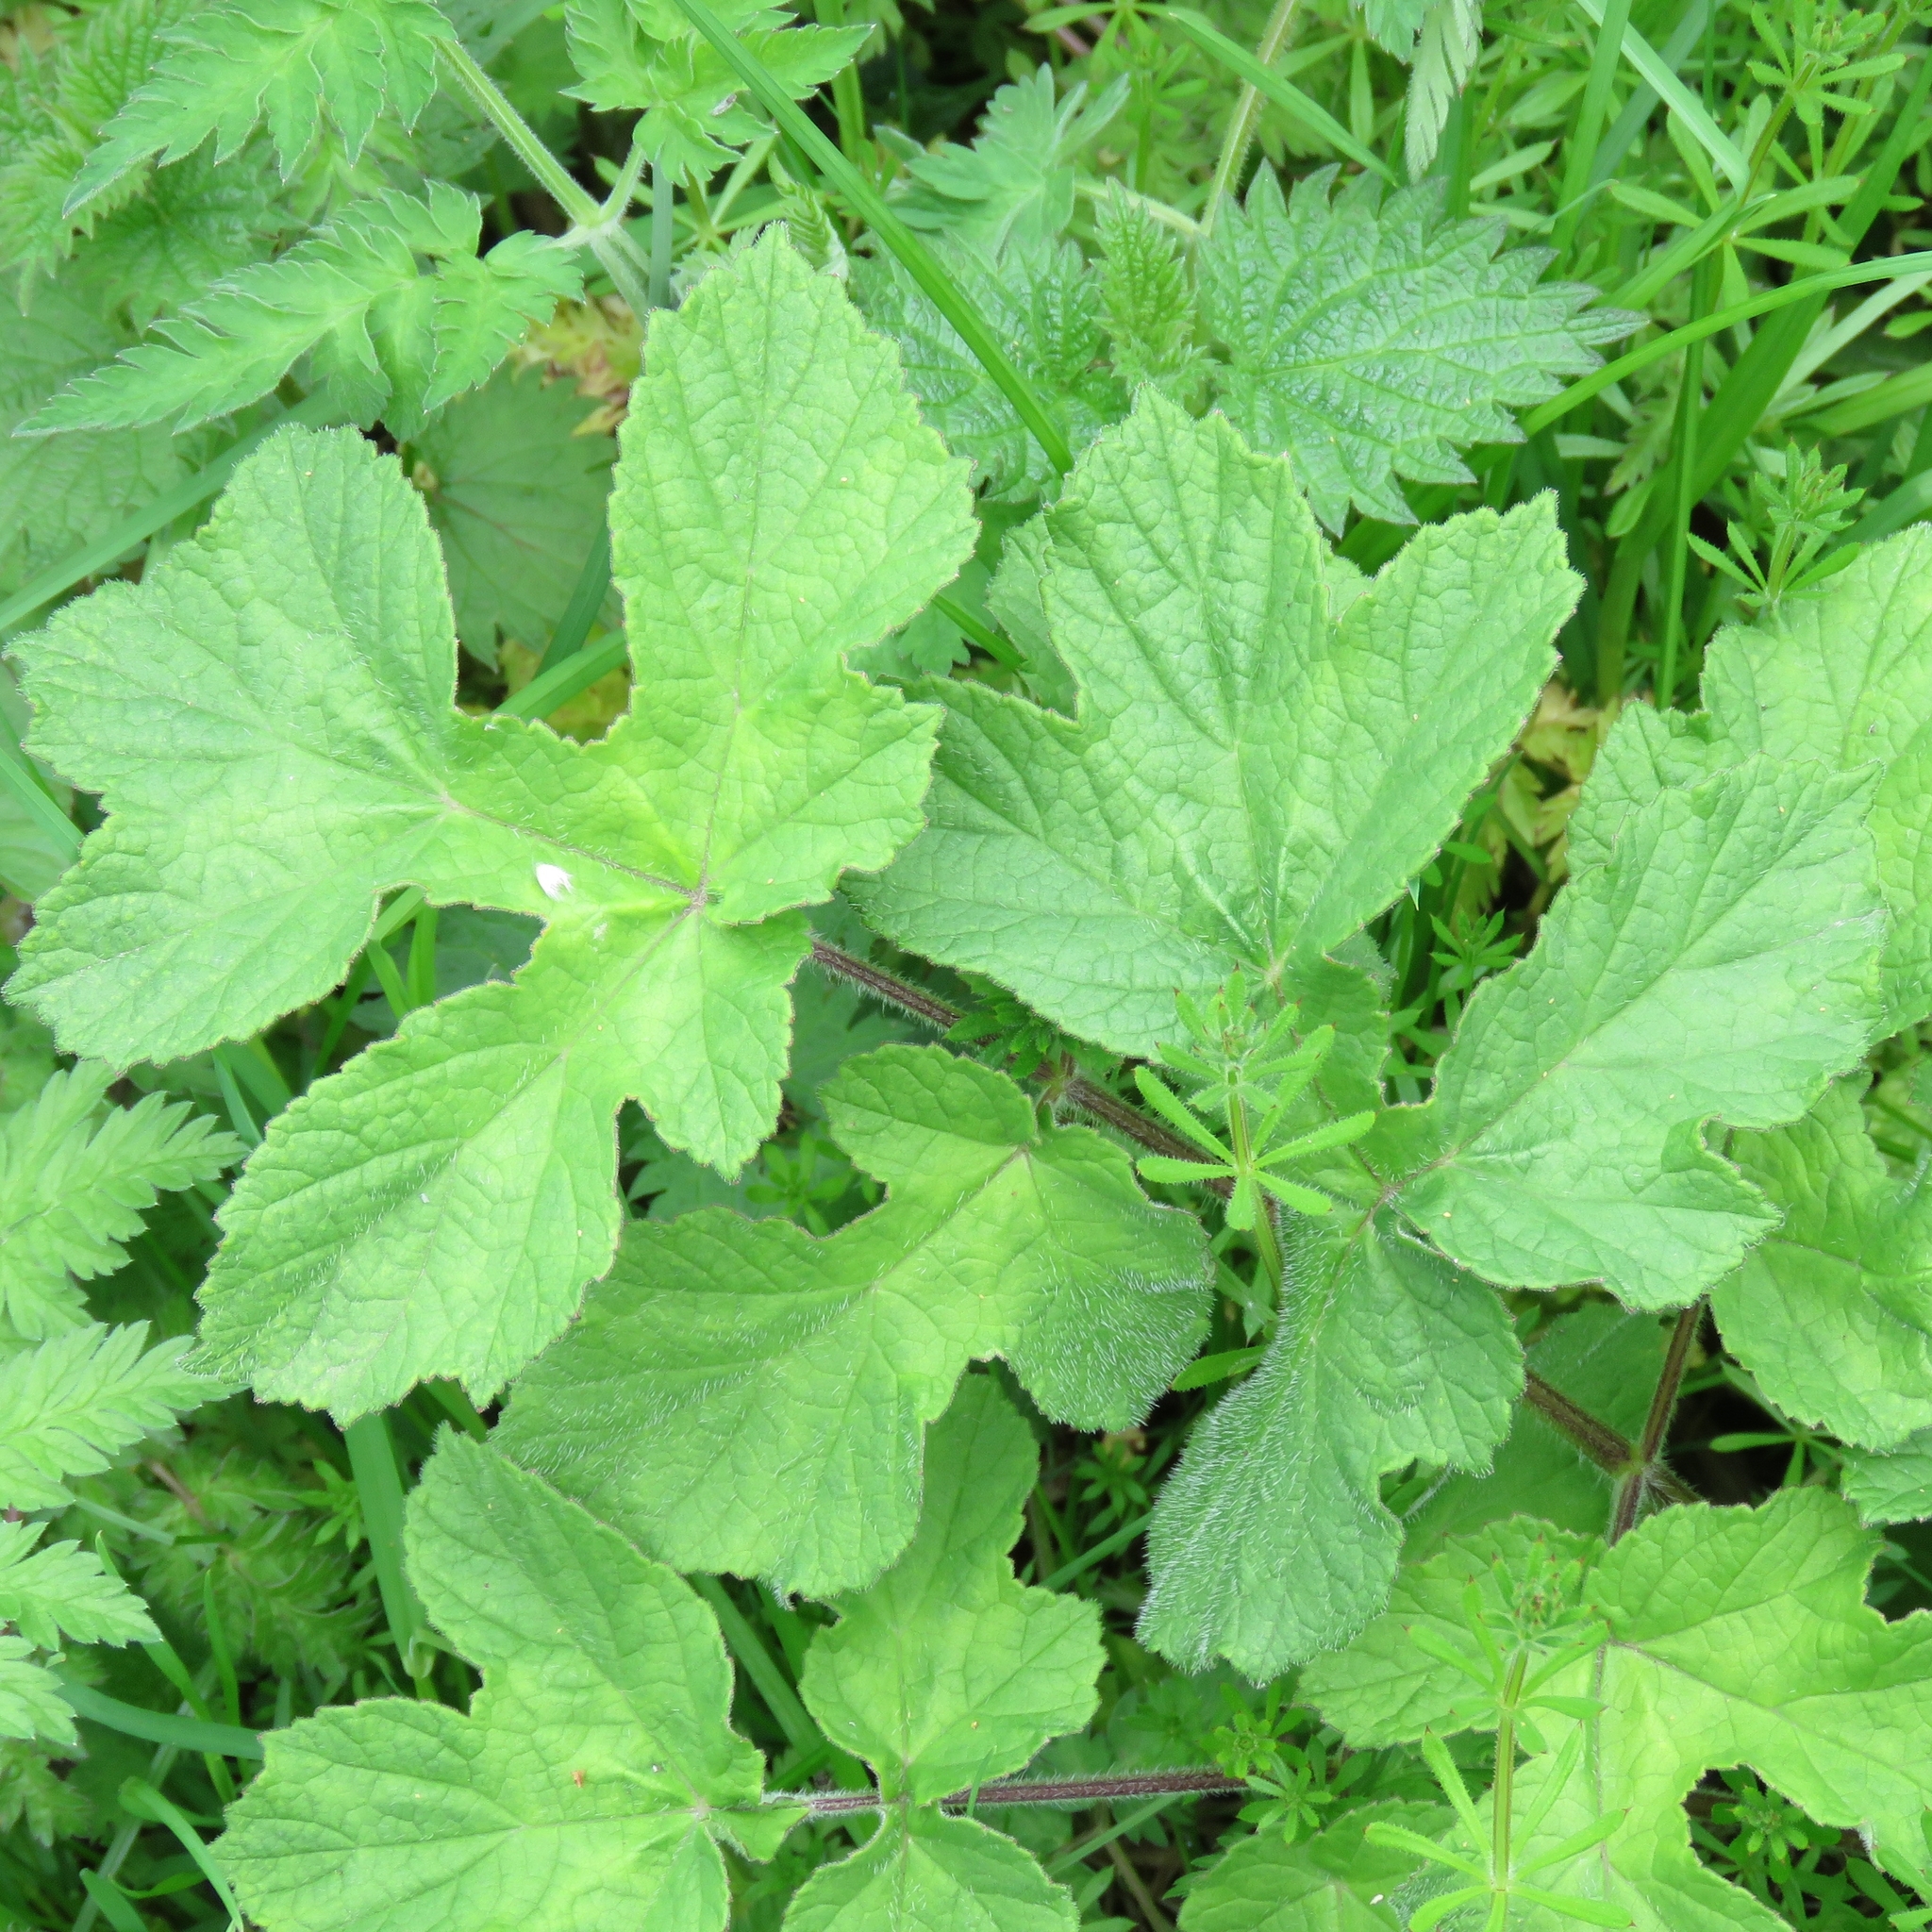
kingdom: Plantae
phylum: Tracheophyta
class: Magnoliopsida
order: Apiales
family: Apiaceae
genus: Heracleum
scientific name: Heracleum sphondylium
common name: Hogweed
